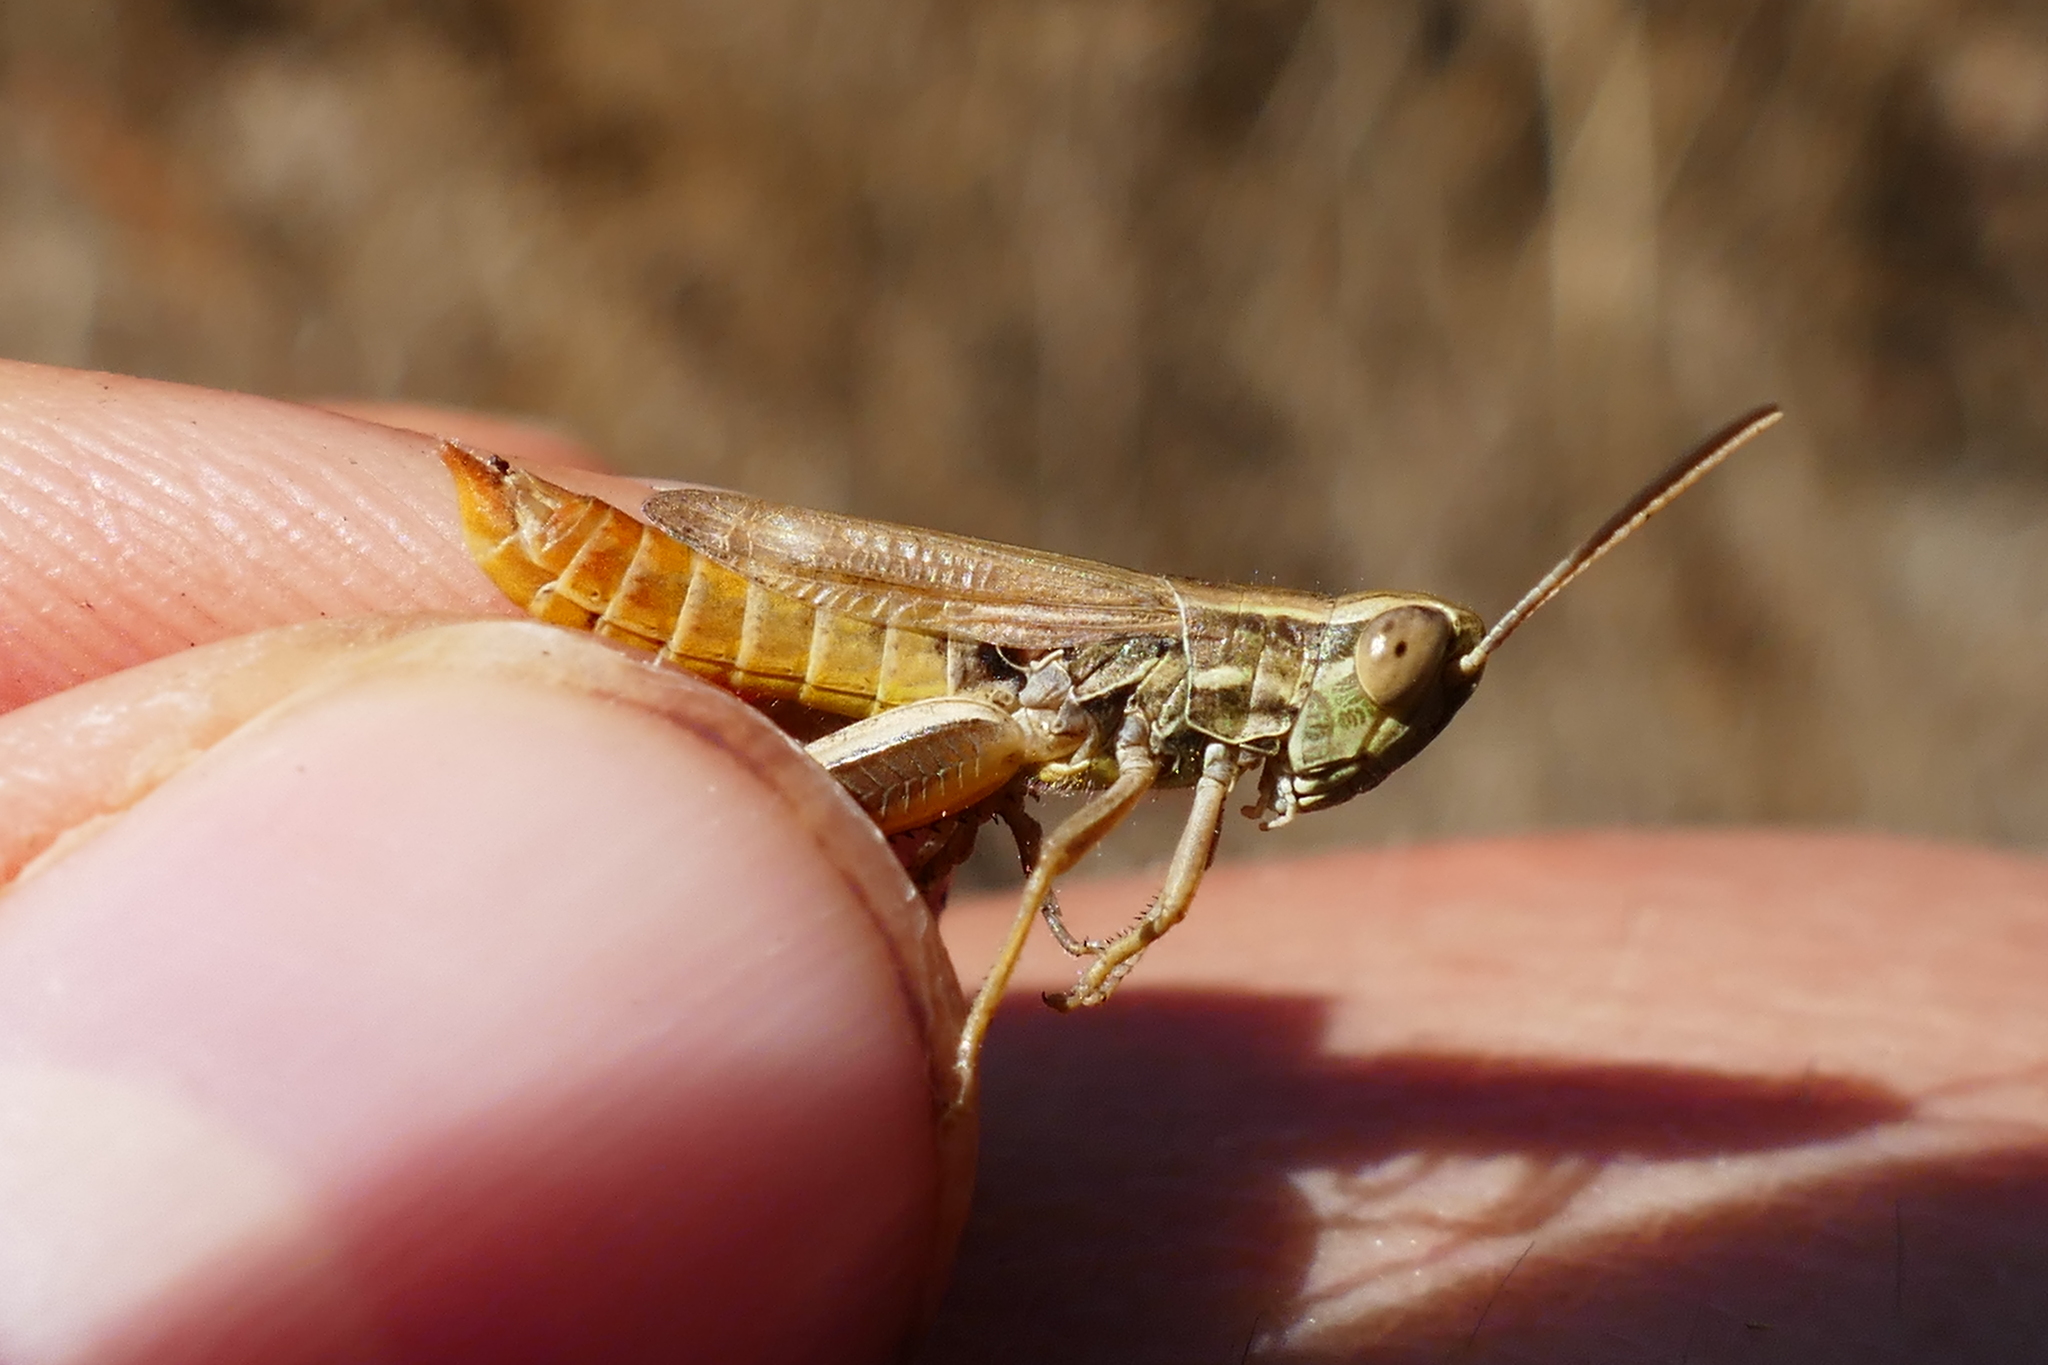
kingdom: Animalia
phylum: Arthropoda
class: Insecta
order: Orthoptera
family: Acrididae
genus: Euchorthippus
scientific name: Euchorthippus declivus
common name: Common straw grasshopper
